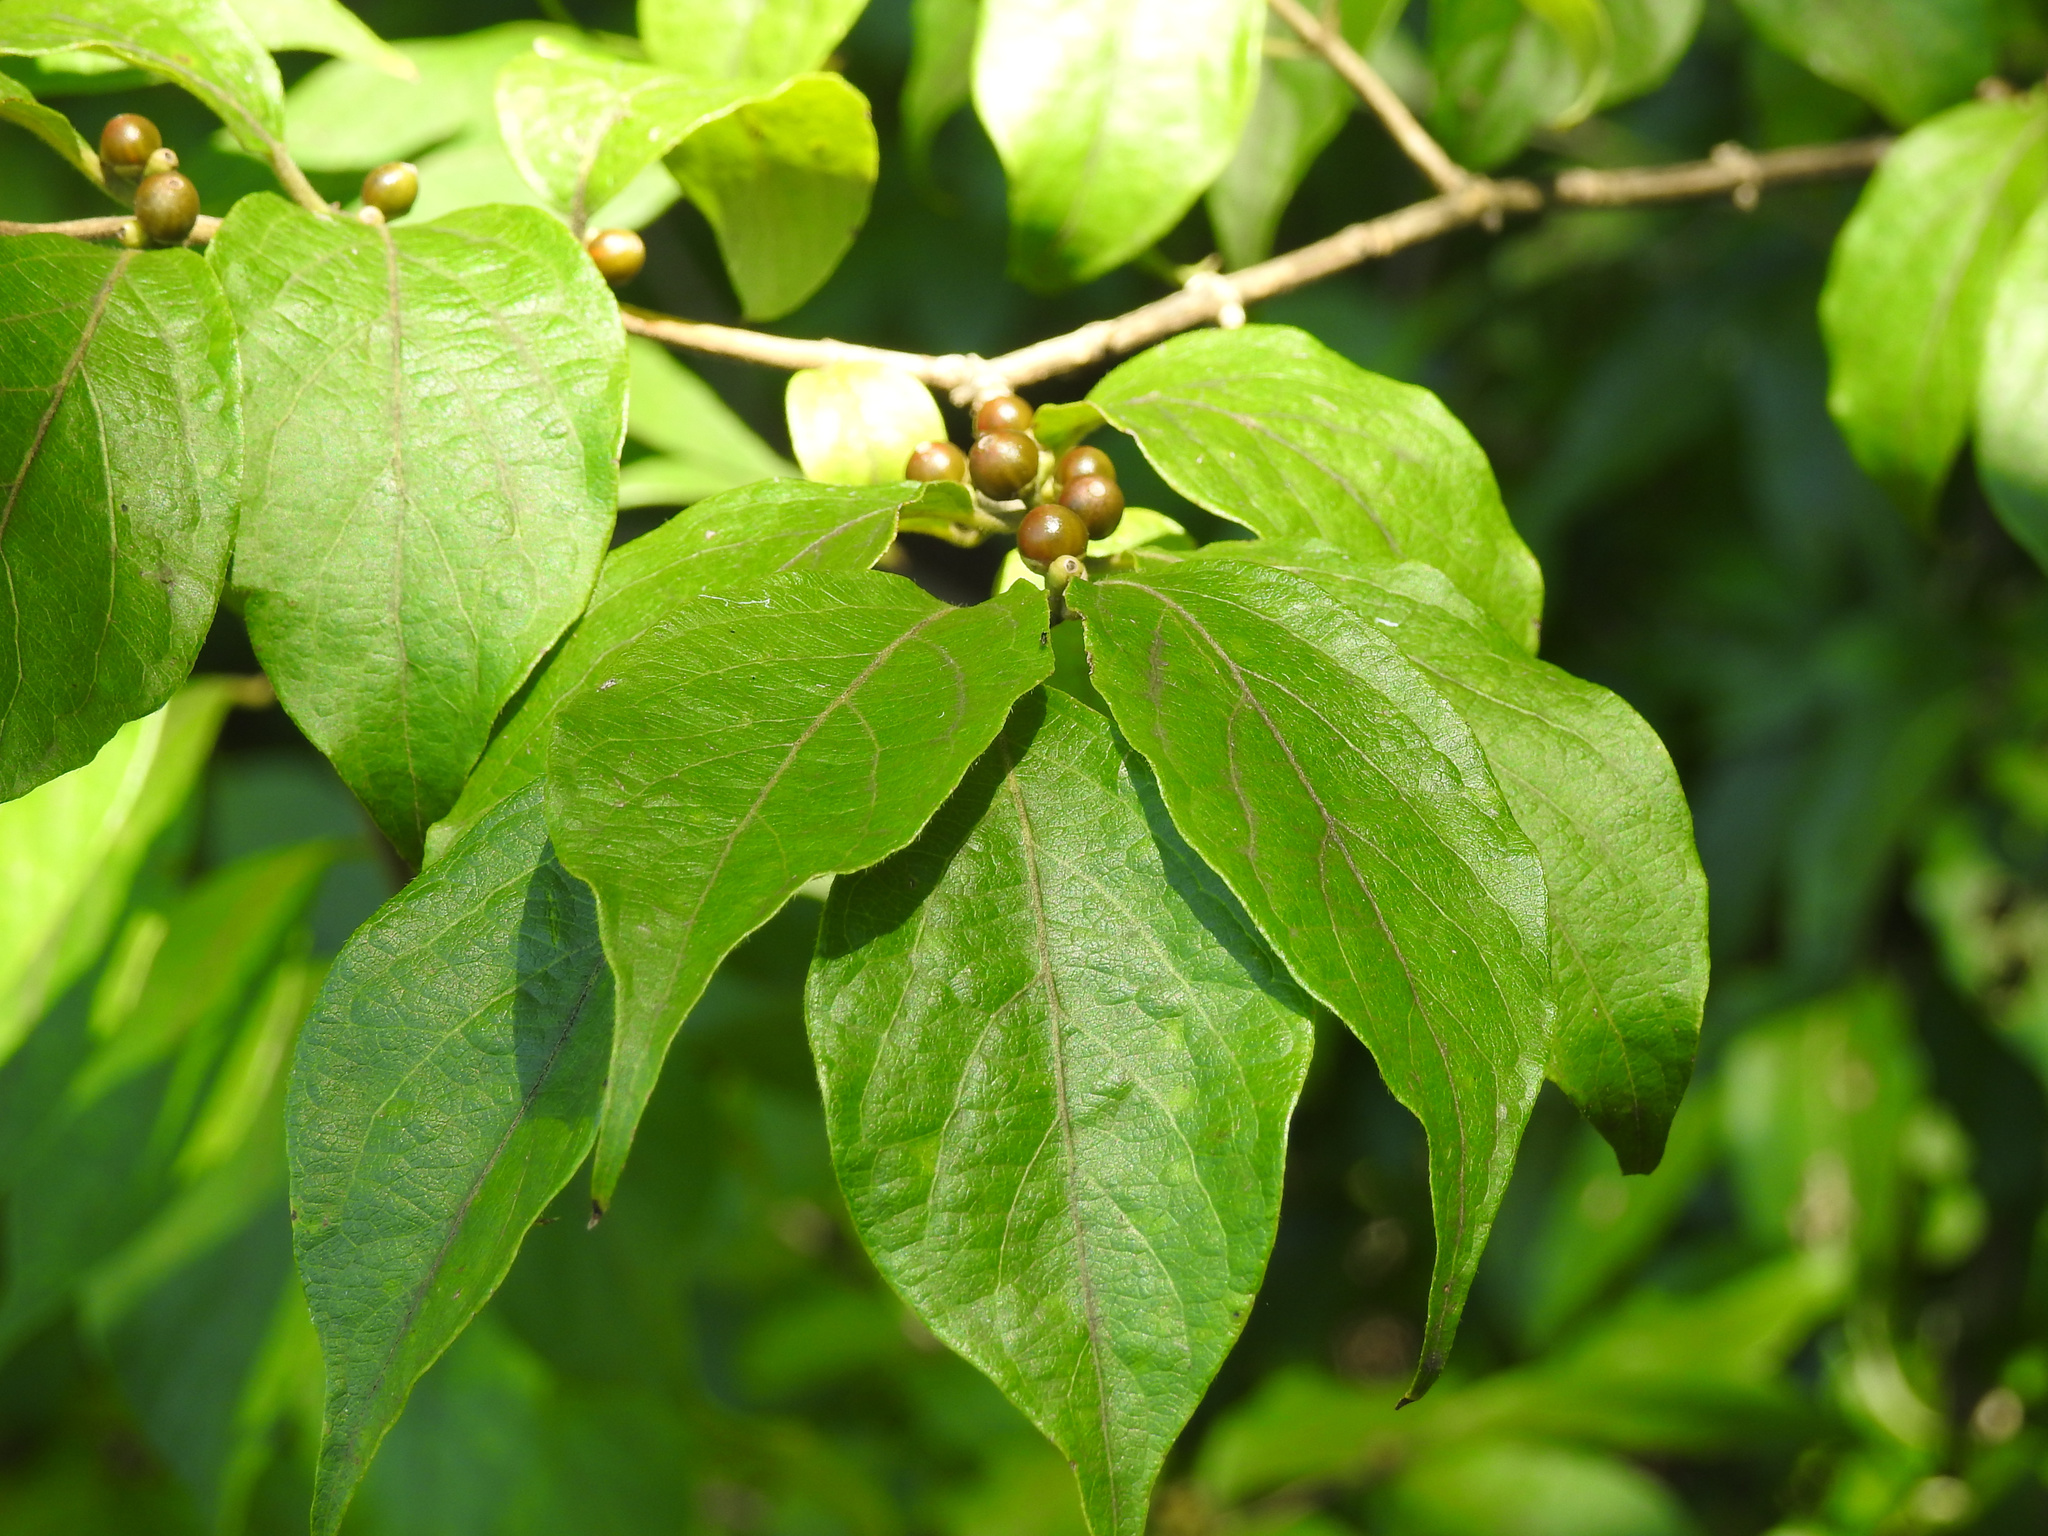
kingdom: Plantae
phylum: Tracheophyta
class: Magnoliopsida
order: Dipsacales
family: Caprifoliaceae
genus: Lonicera
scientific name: Lonicera maackii
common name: Amur honeysuckle
